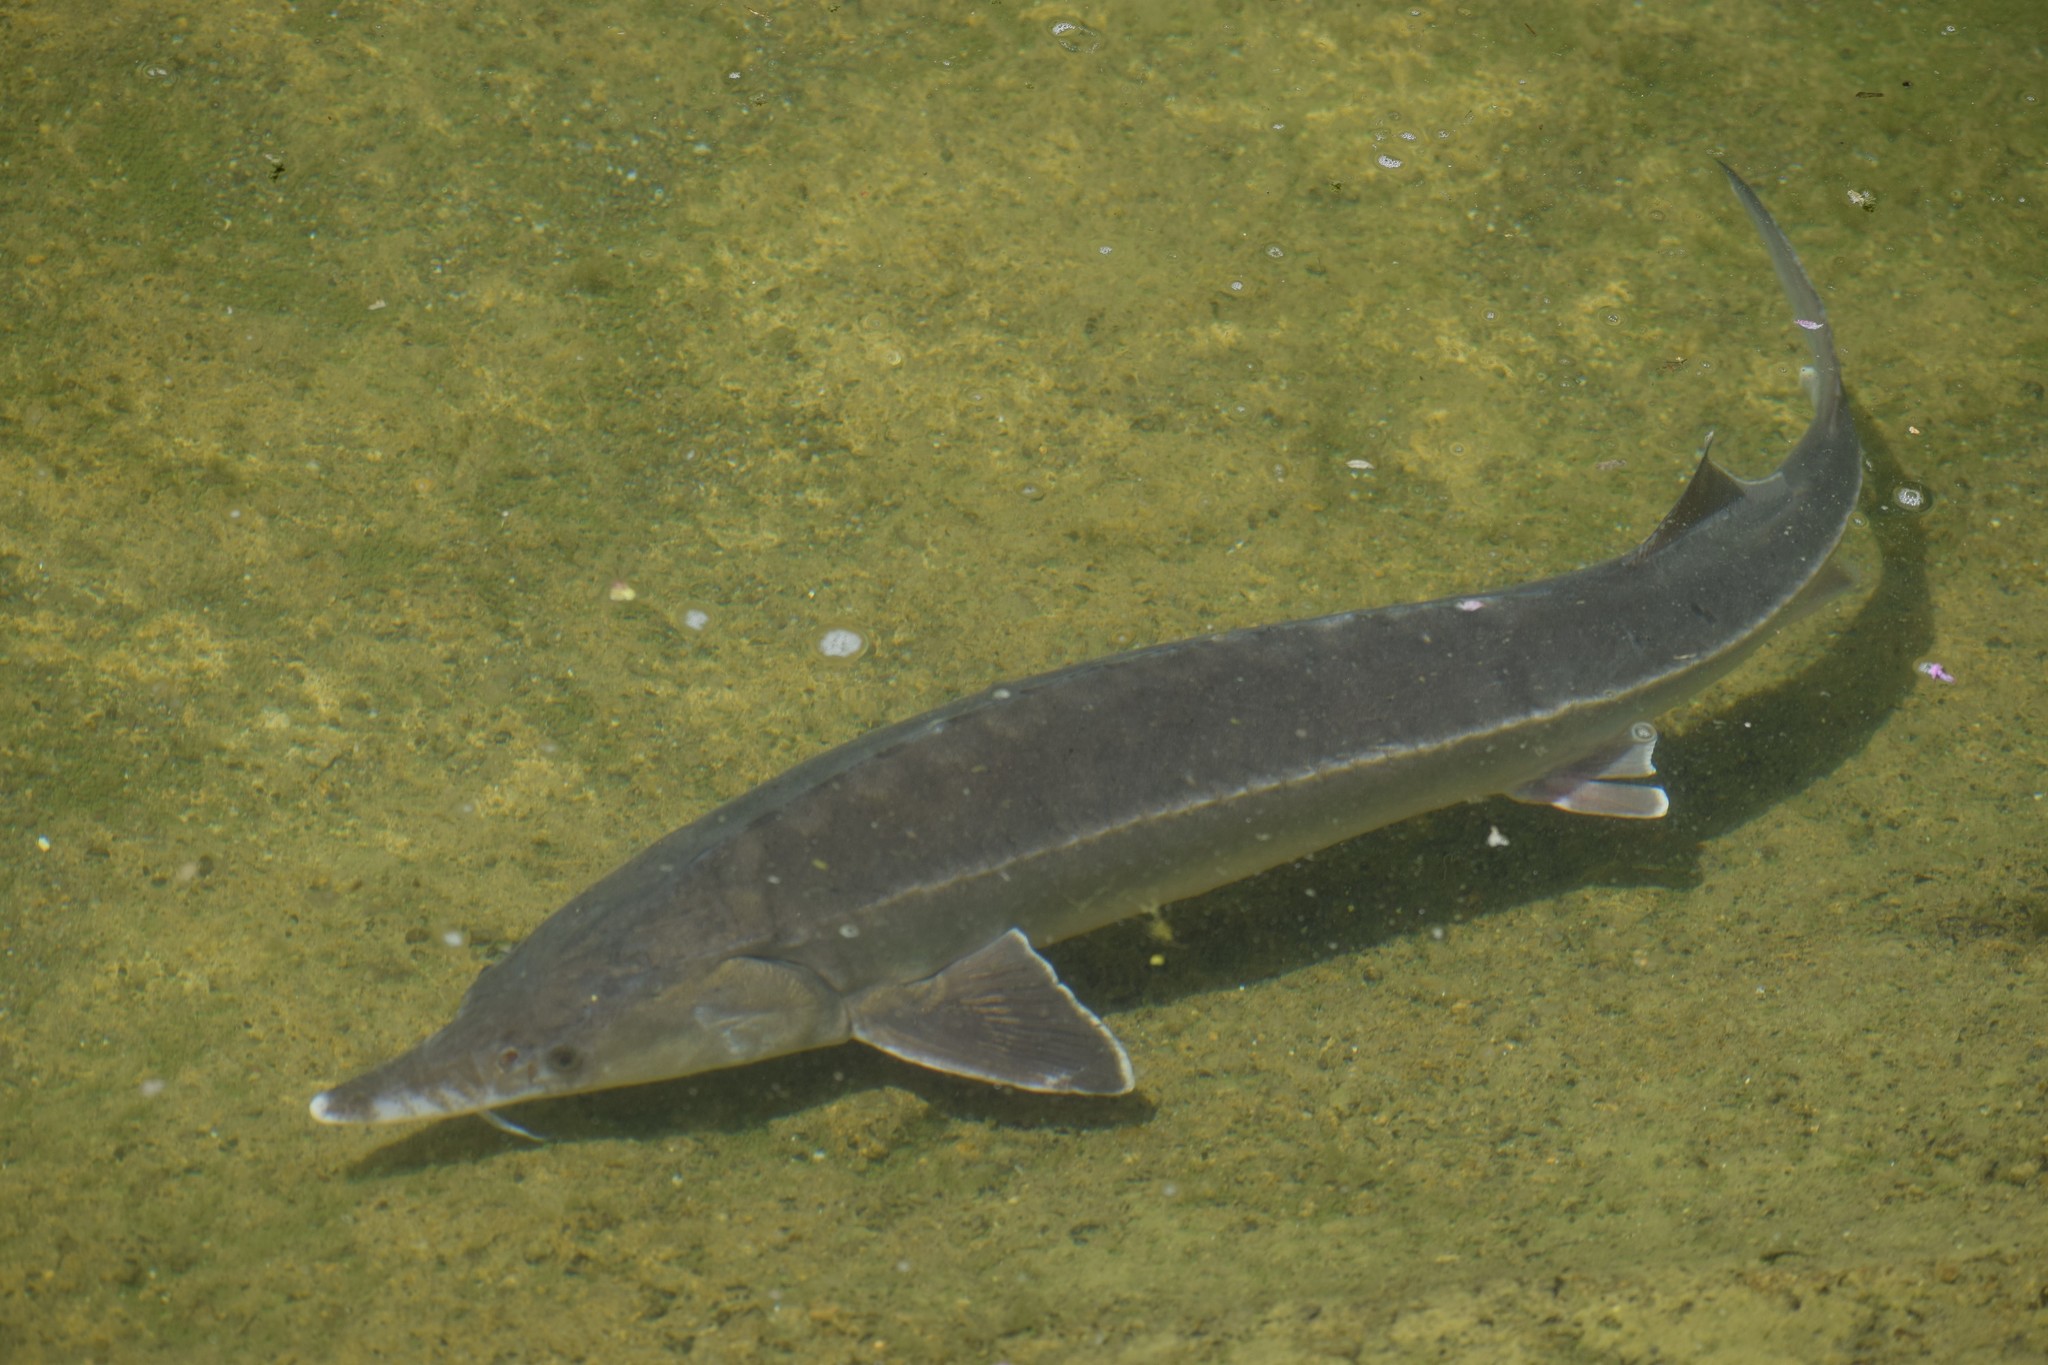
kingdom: Animalia
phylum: Chordata
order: Acipenseriformes
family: Acipenseridae
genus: Acipenser
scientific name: Acipenser ruthenus
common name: Sterlet
